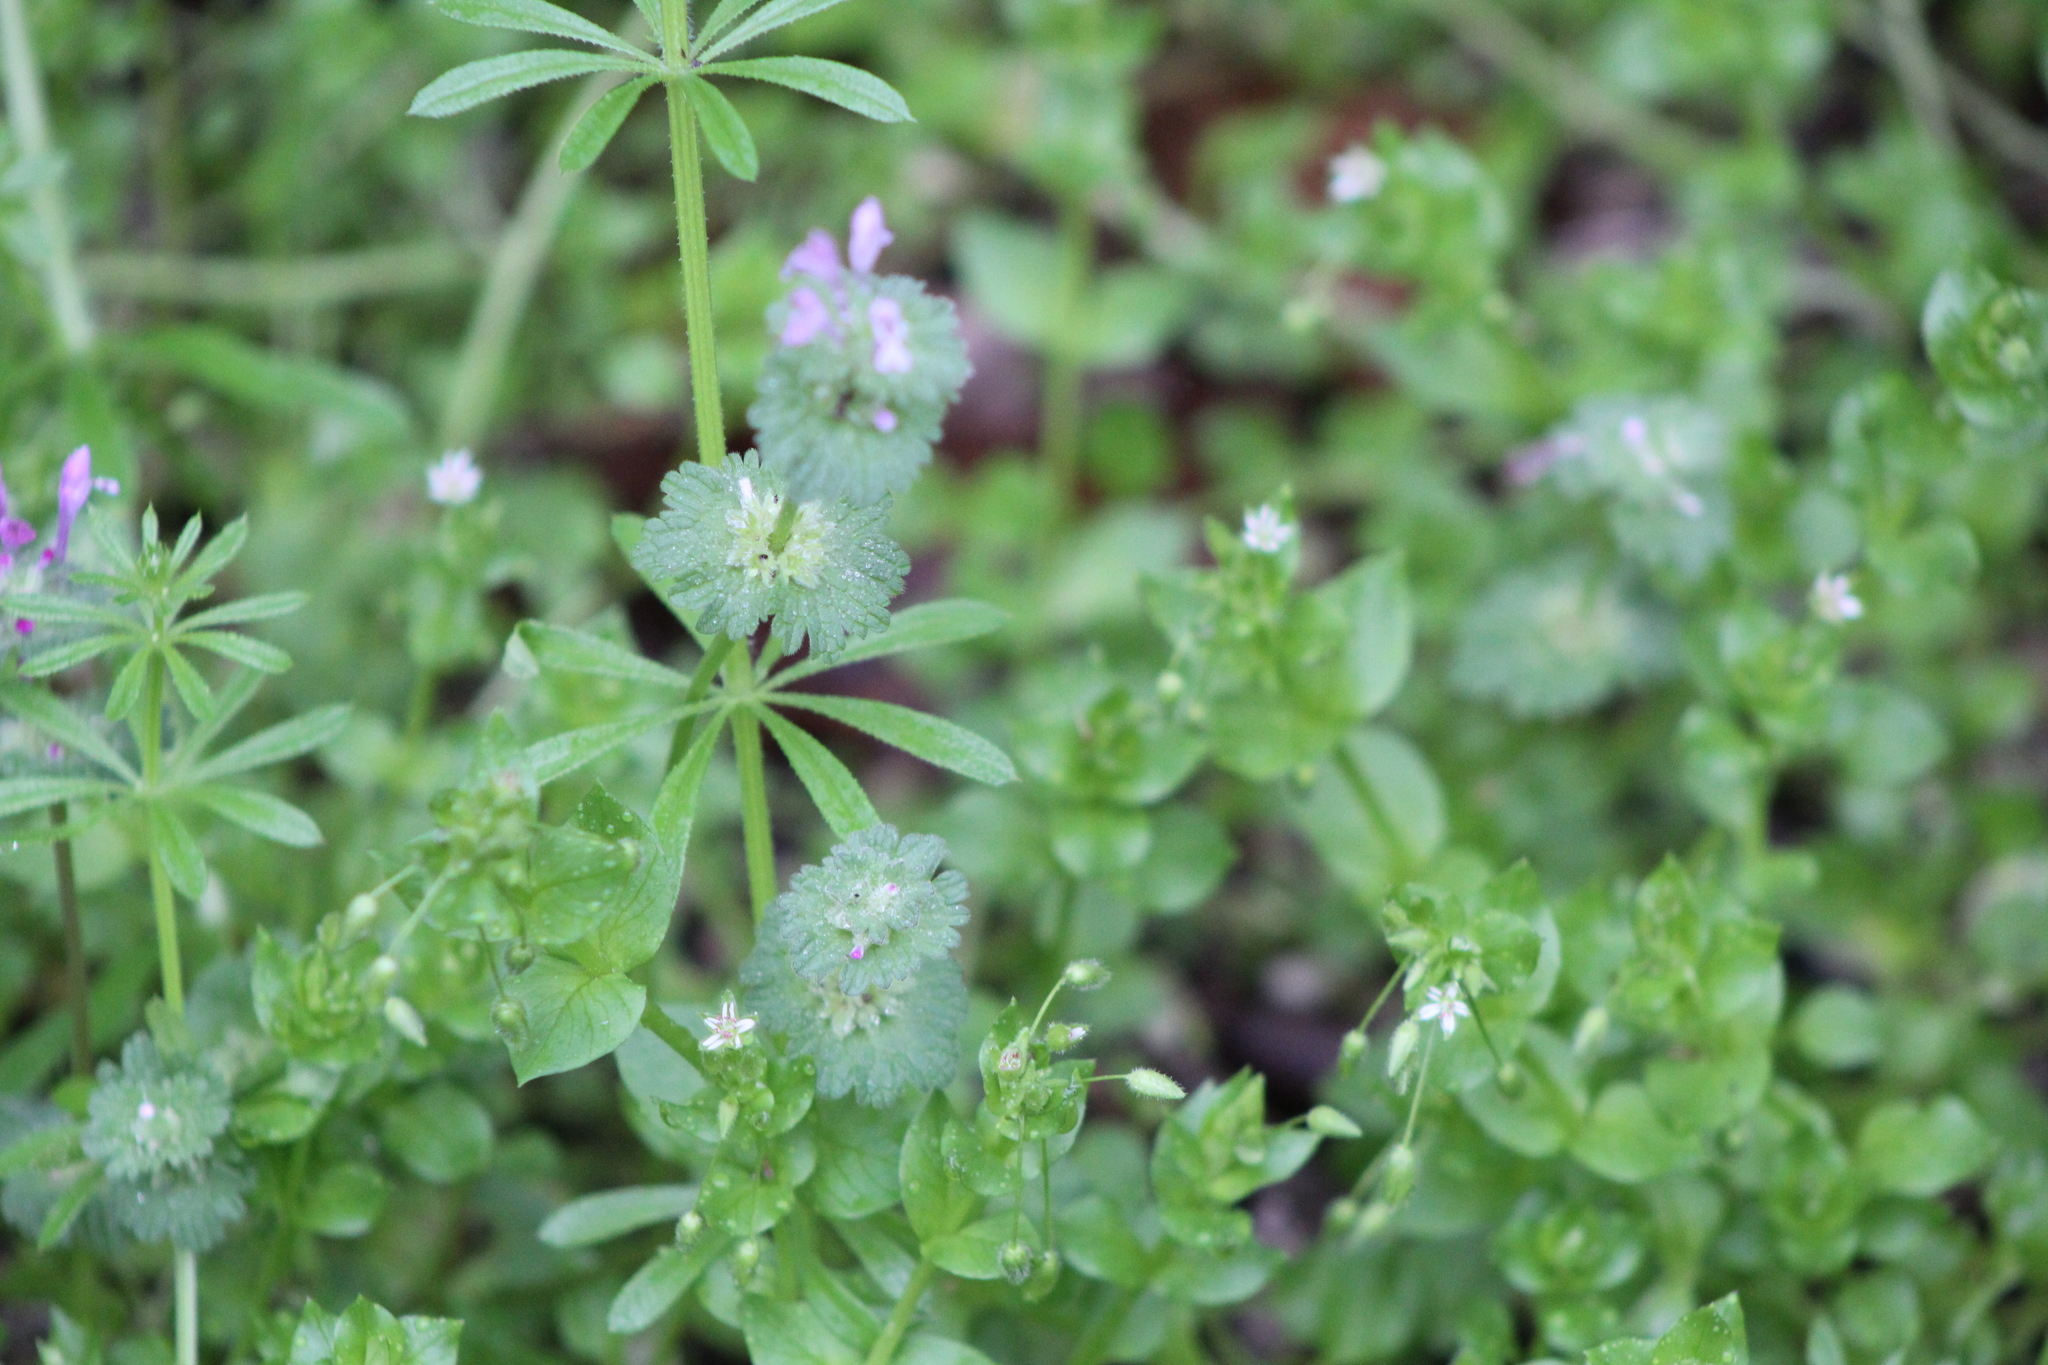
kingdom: Plantae
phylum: Tracheophyta
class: Magnoliopsida
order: Lamiales
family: Lamiaceae
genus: Lamium
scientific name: Lamium amplexicaule
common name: Henbit dead-nettle
